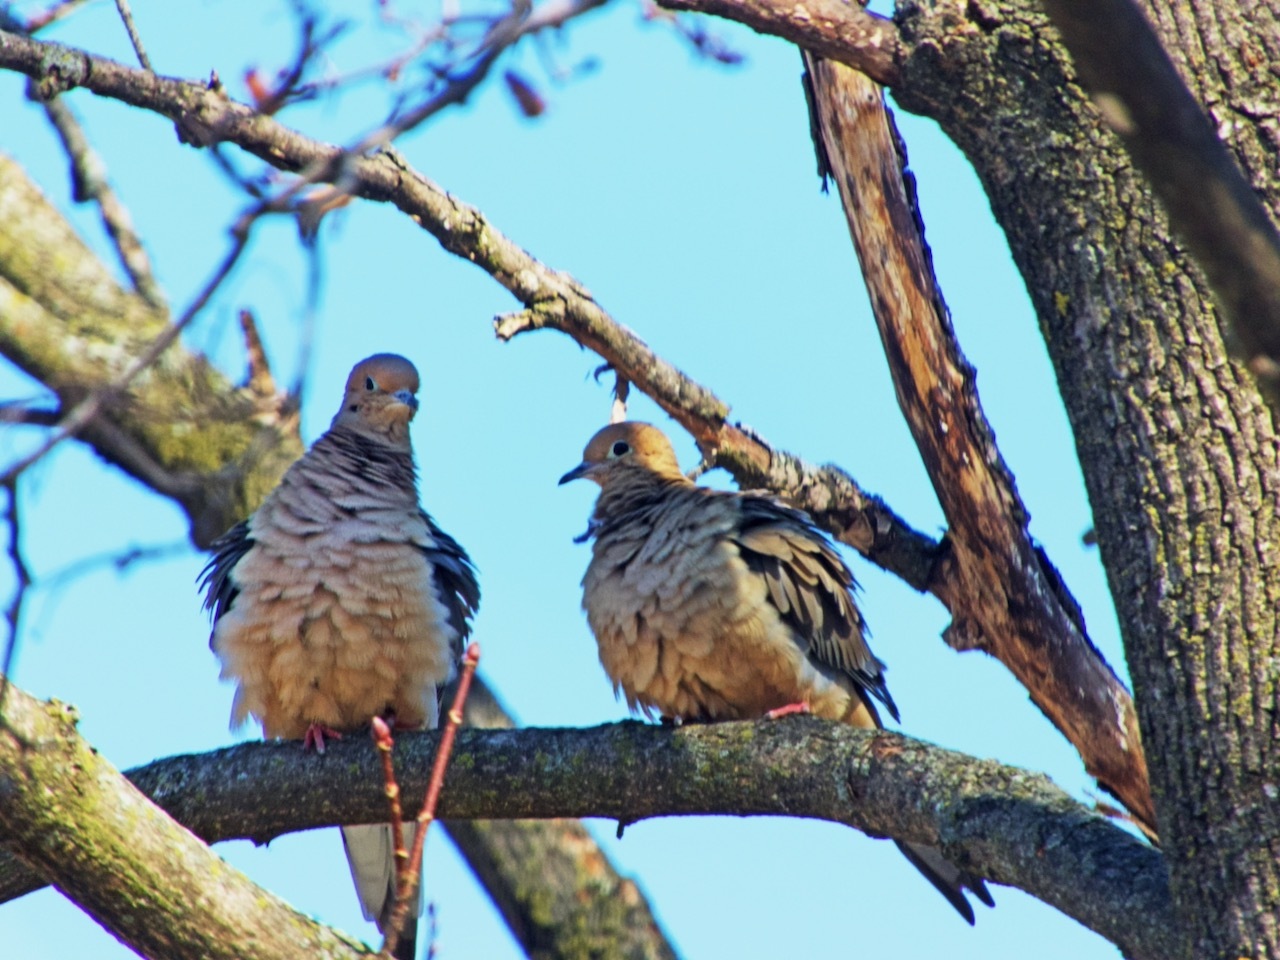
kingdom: Animalia
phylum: Chordata
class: Aves
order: Columbiformes
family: Columbidae
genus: Zenaida
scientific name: Zenaida macroura
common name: Mourning dove
